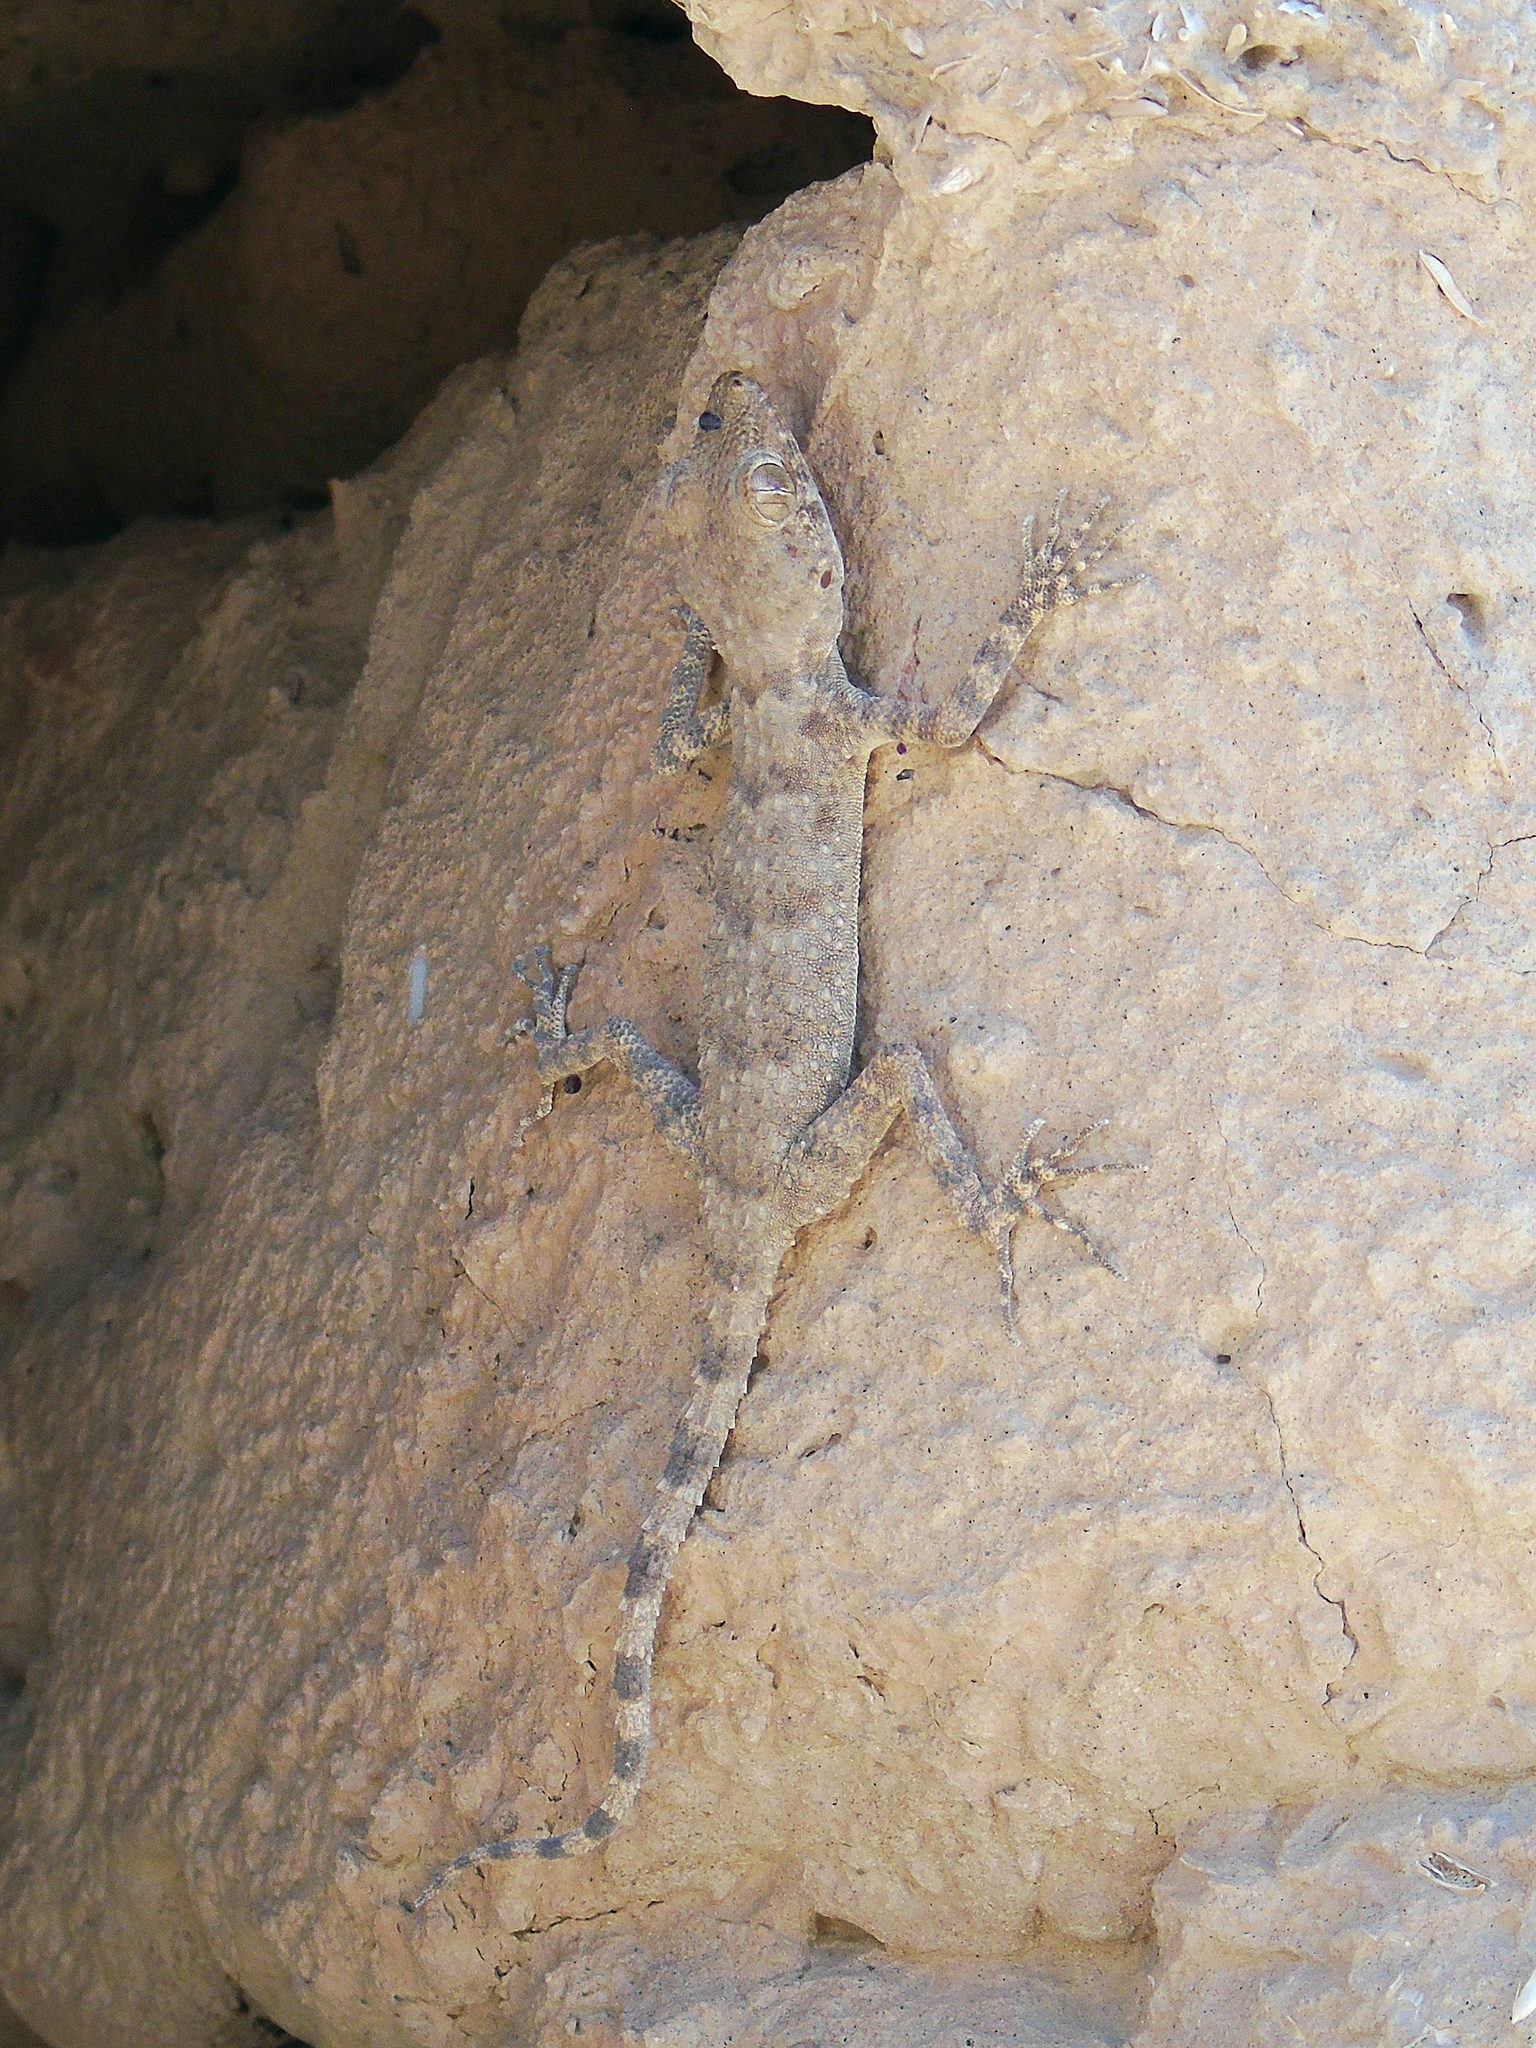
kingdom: Animalia
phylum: Chordata
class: Squamata
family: Gekkonidae
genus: Tenuidactylus
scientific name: Tenuidactylus fedtschenkoi
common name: Turkestan thin-toed gecko
